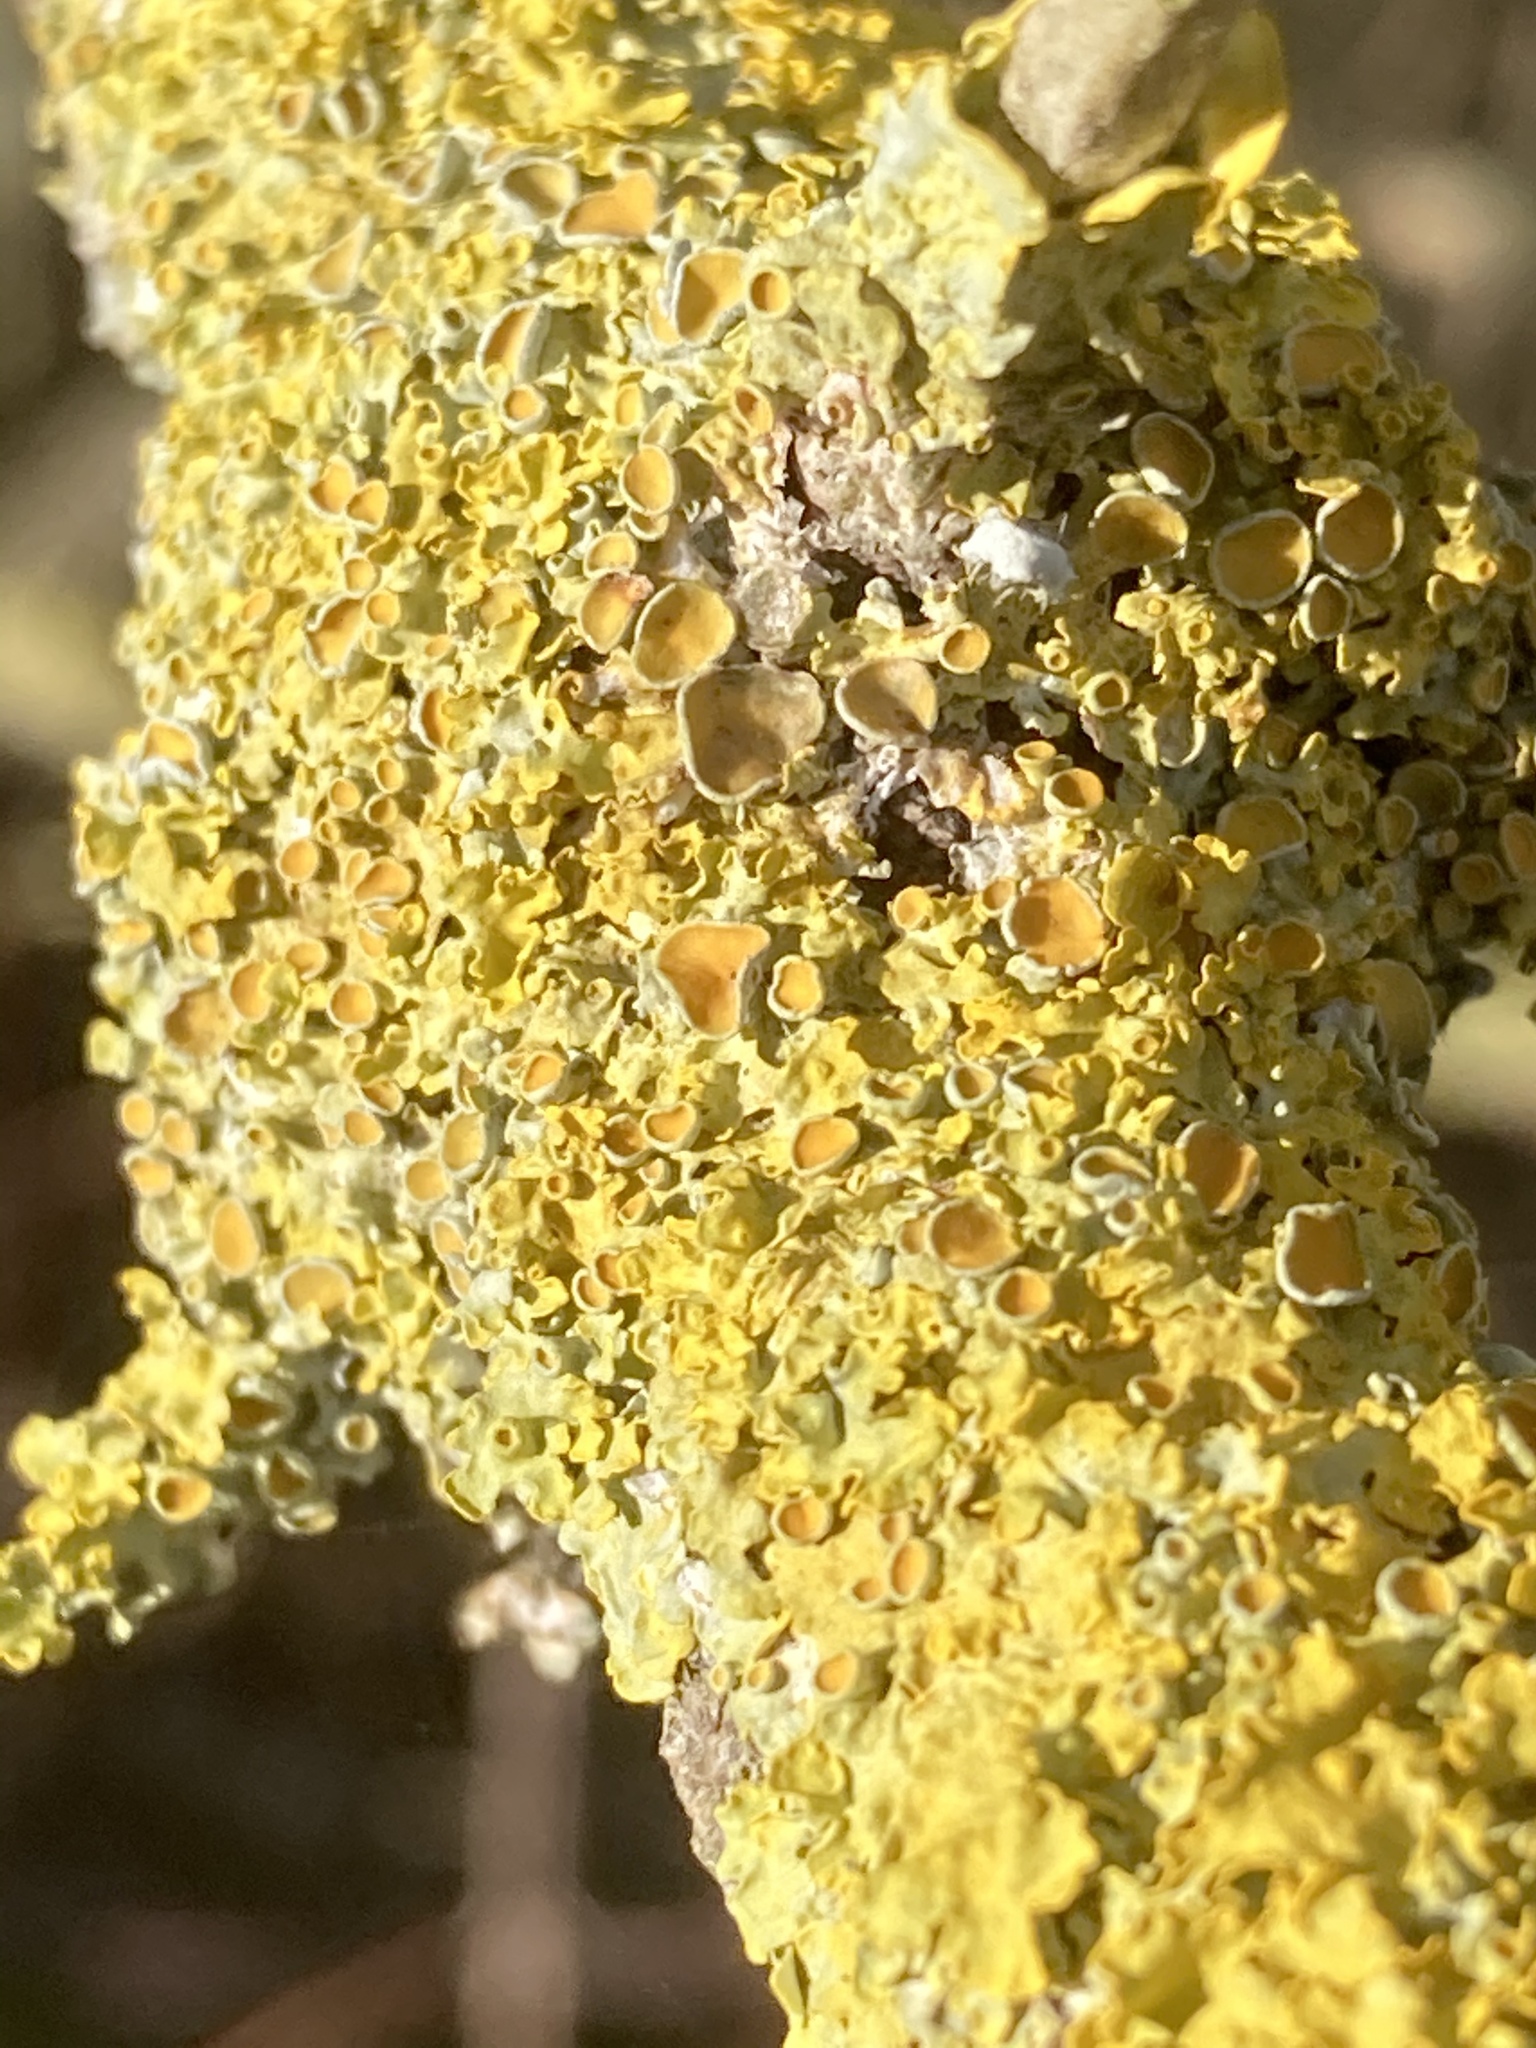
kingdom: Fungi
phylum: Ascomycota
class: Lecanoromycetes
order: Teloschistales
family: Teloschistaceae
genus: Xanthoria
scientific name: Xanthoria parietina
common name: Common orange lichen
